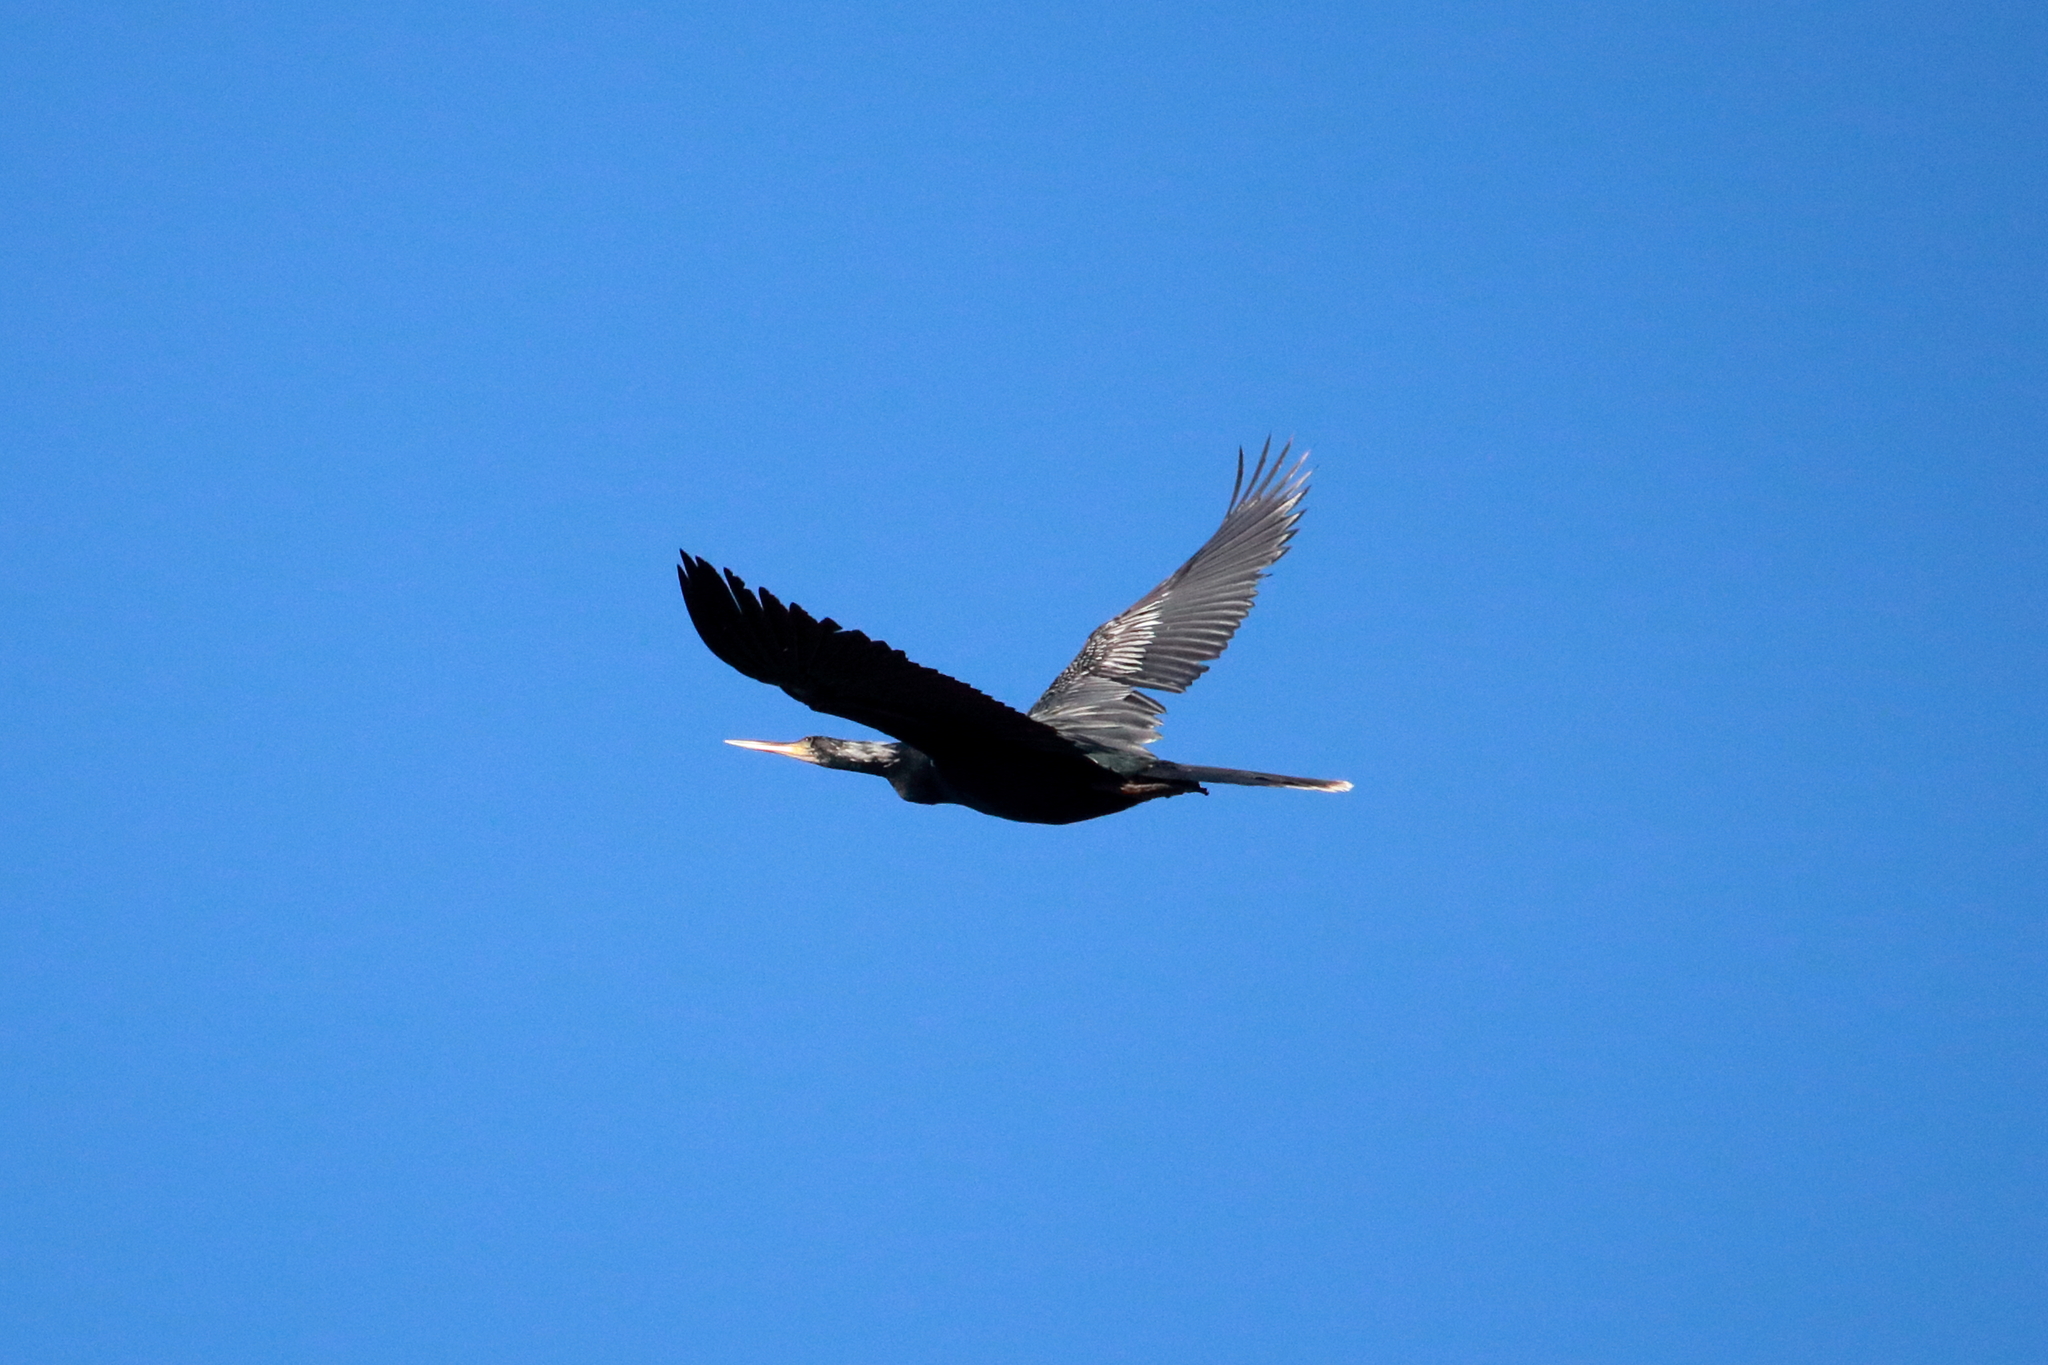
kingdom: Animalia
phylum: Chordata
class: Aves
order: Suliformes
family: Anhingidae
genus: Anhinga
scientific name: Anhinga anhinga
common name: Anhinga
